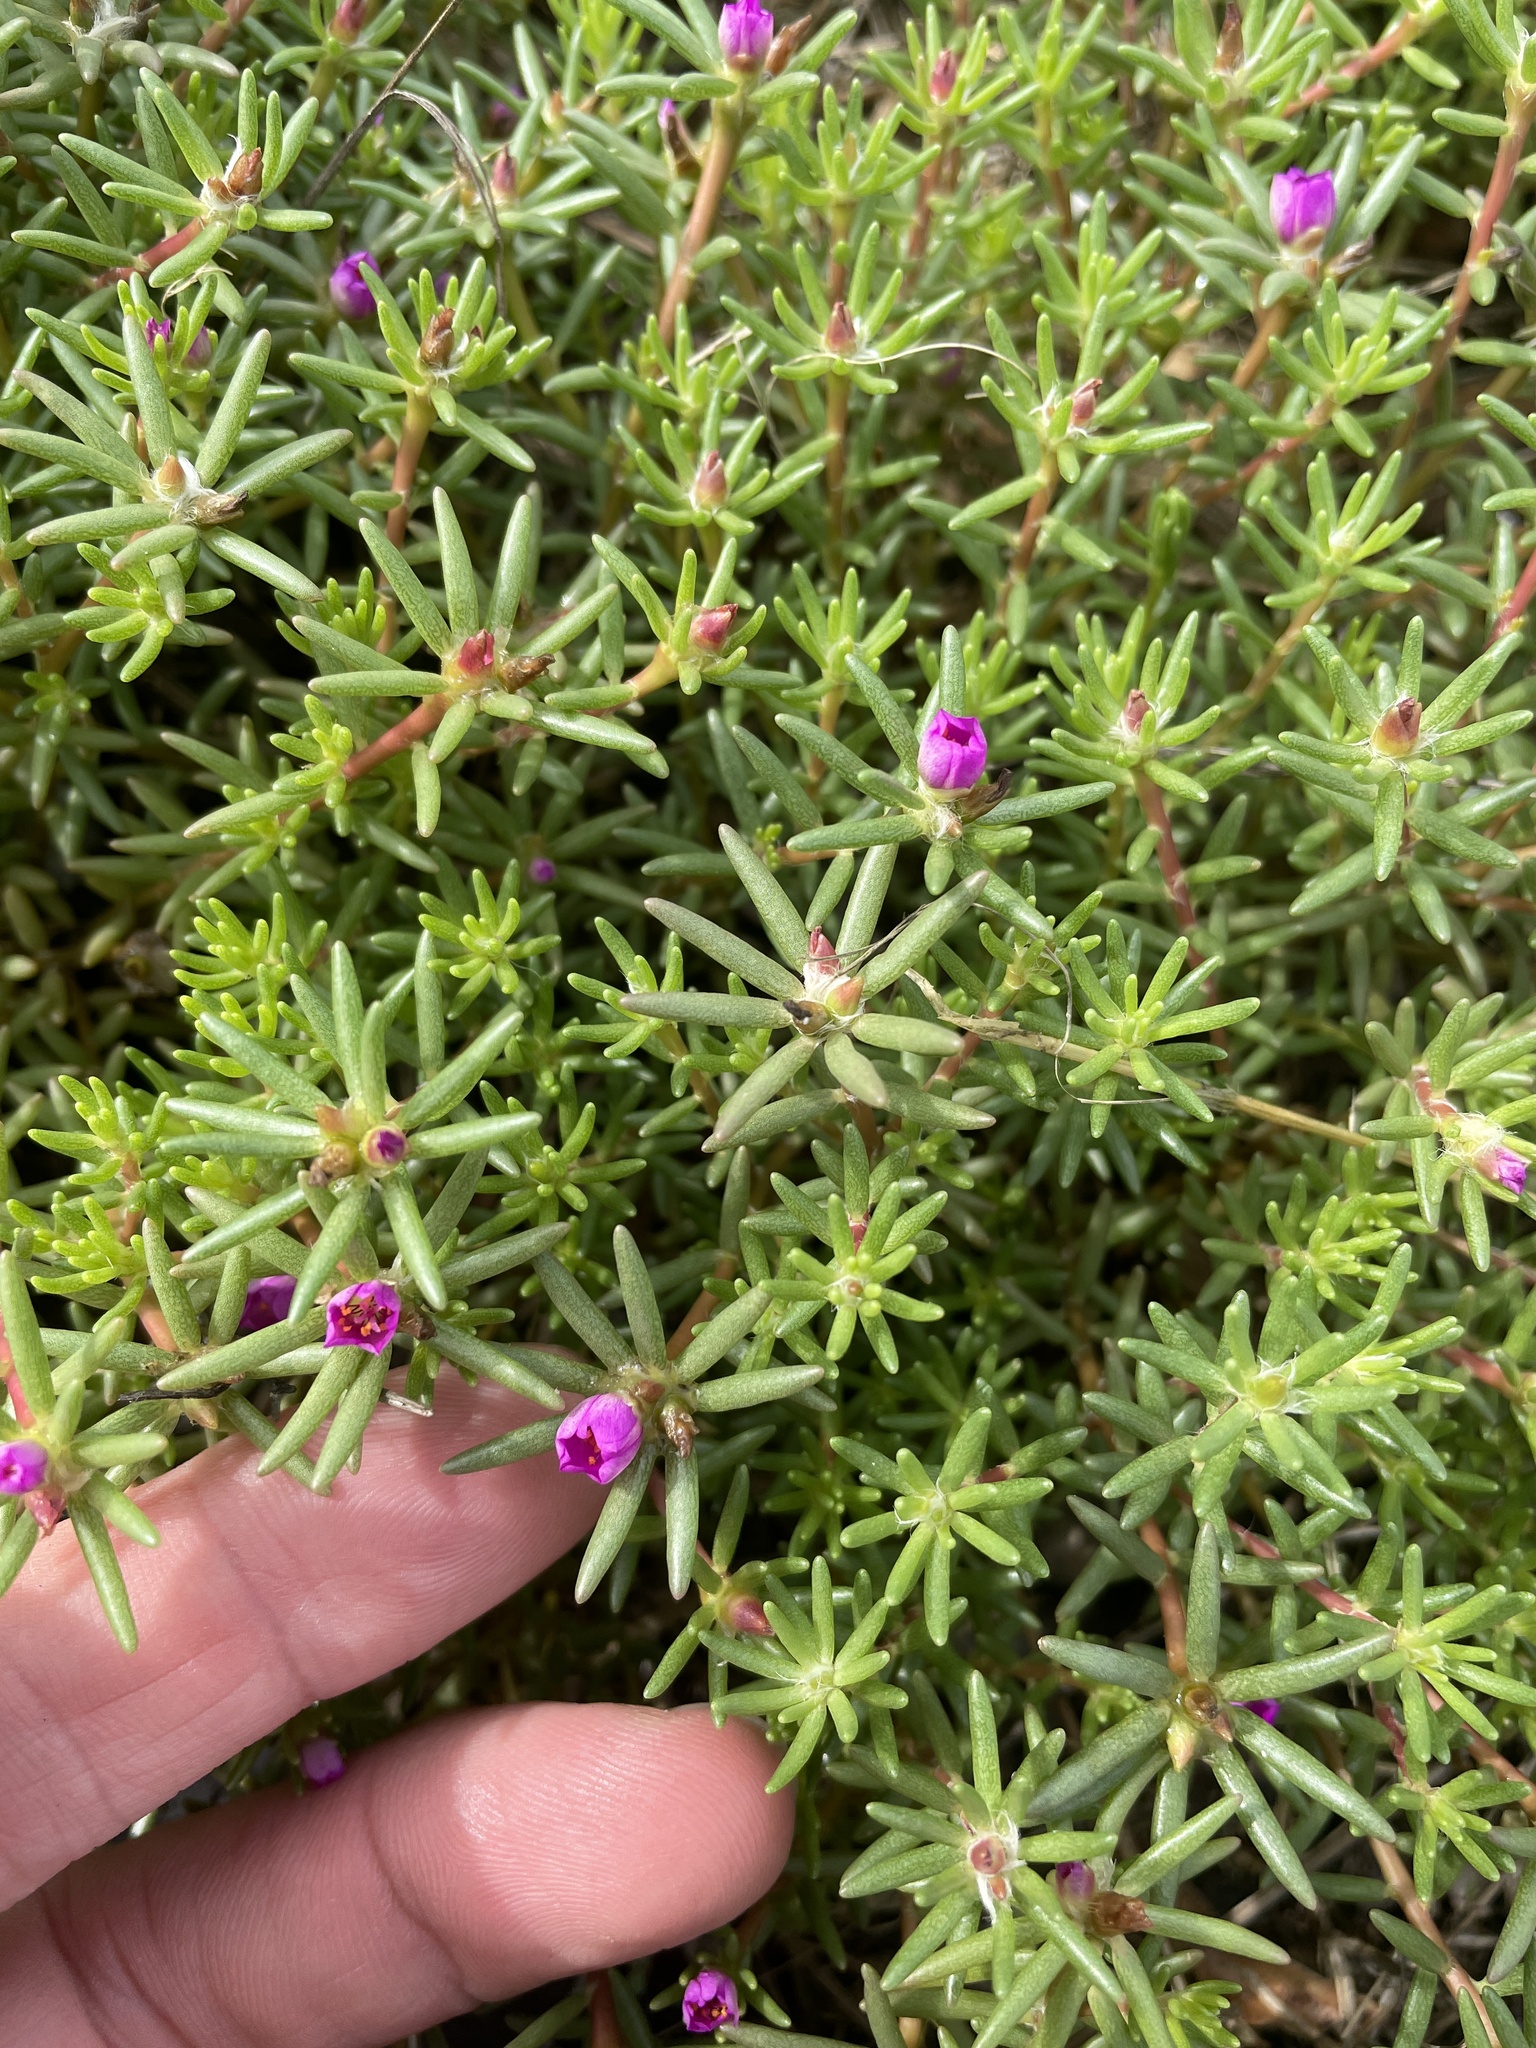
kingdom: Plantae
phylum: Tracheophyta
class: Magnoliopsida
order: Caryophyllales
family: Portulacaceae
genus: Portulaca
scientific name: Portulaca pilosa
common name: Kiss me quick
